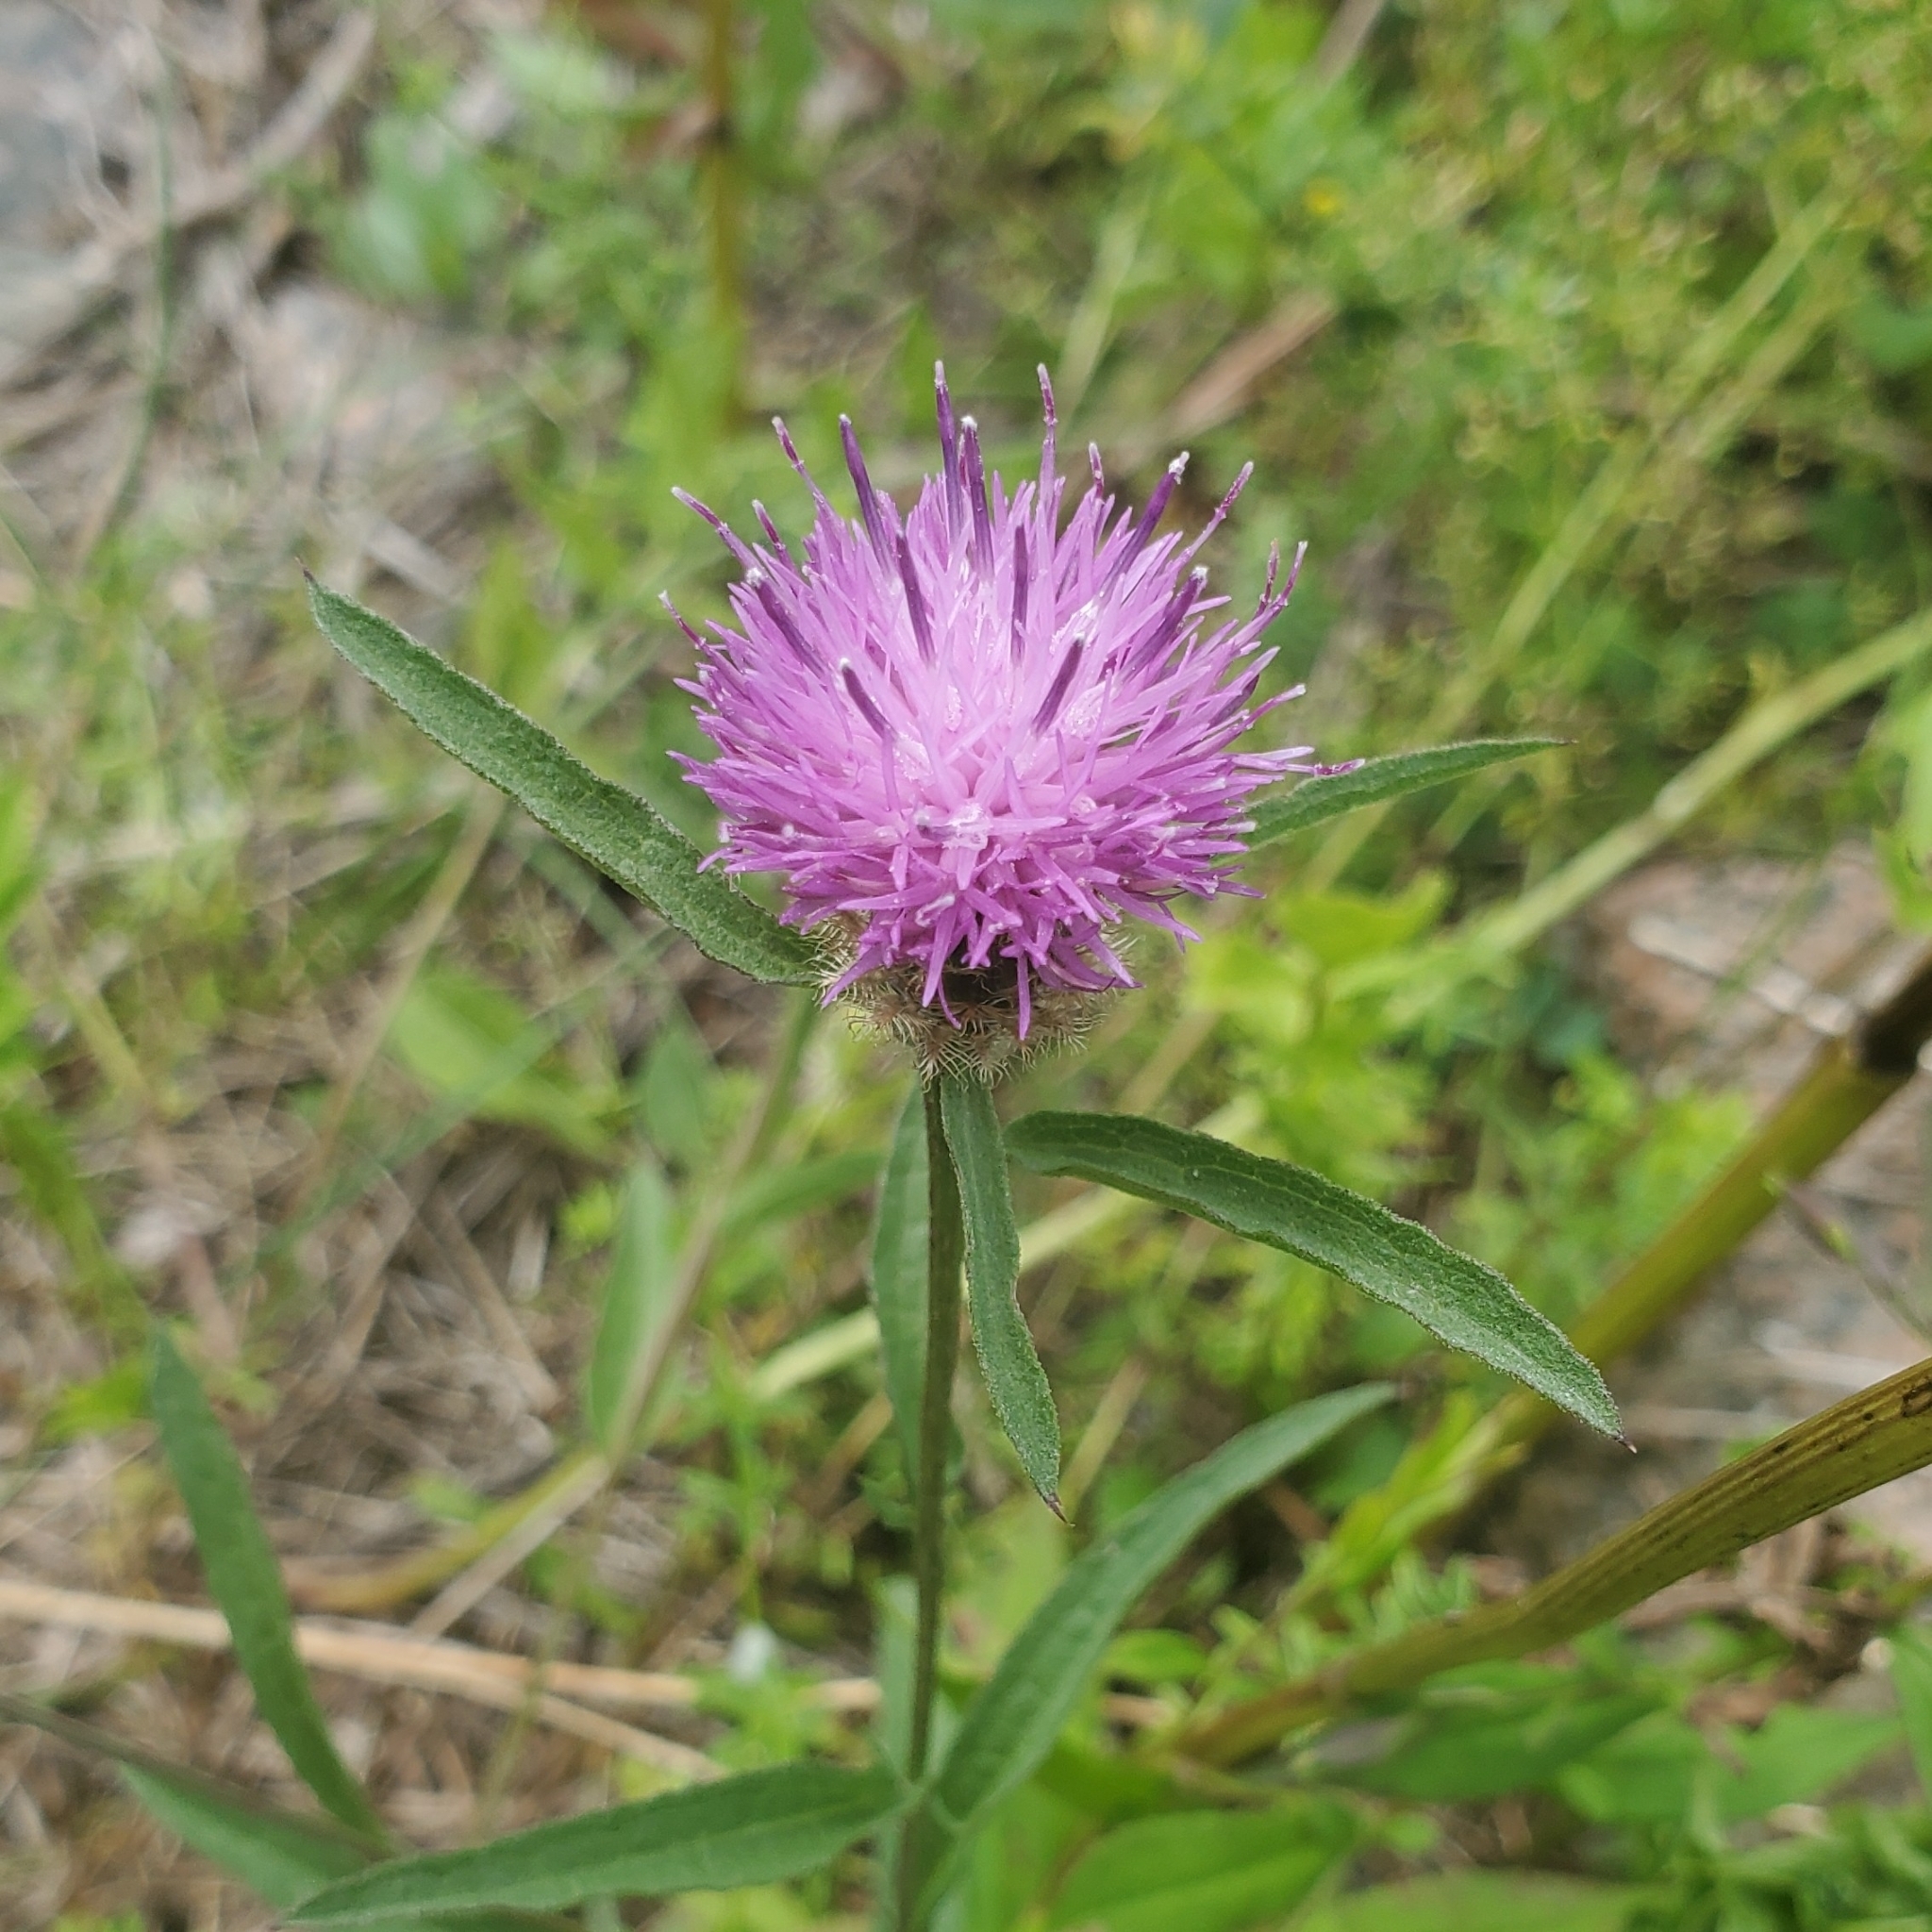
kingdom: Plantae
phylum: Tracheophyta
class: Magnoliopsida
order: Asterales
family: Asteraceae
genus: Centaurea
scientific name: Centaurea nigra
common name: Lesser knapweed
